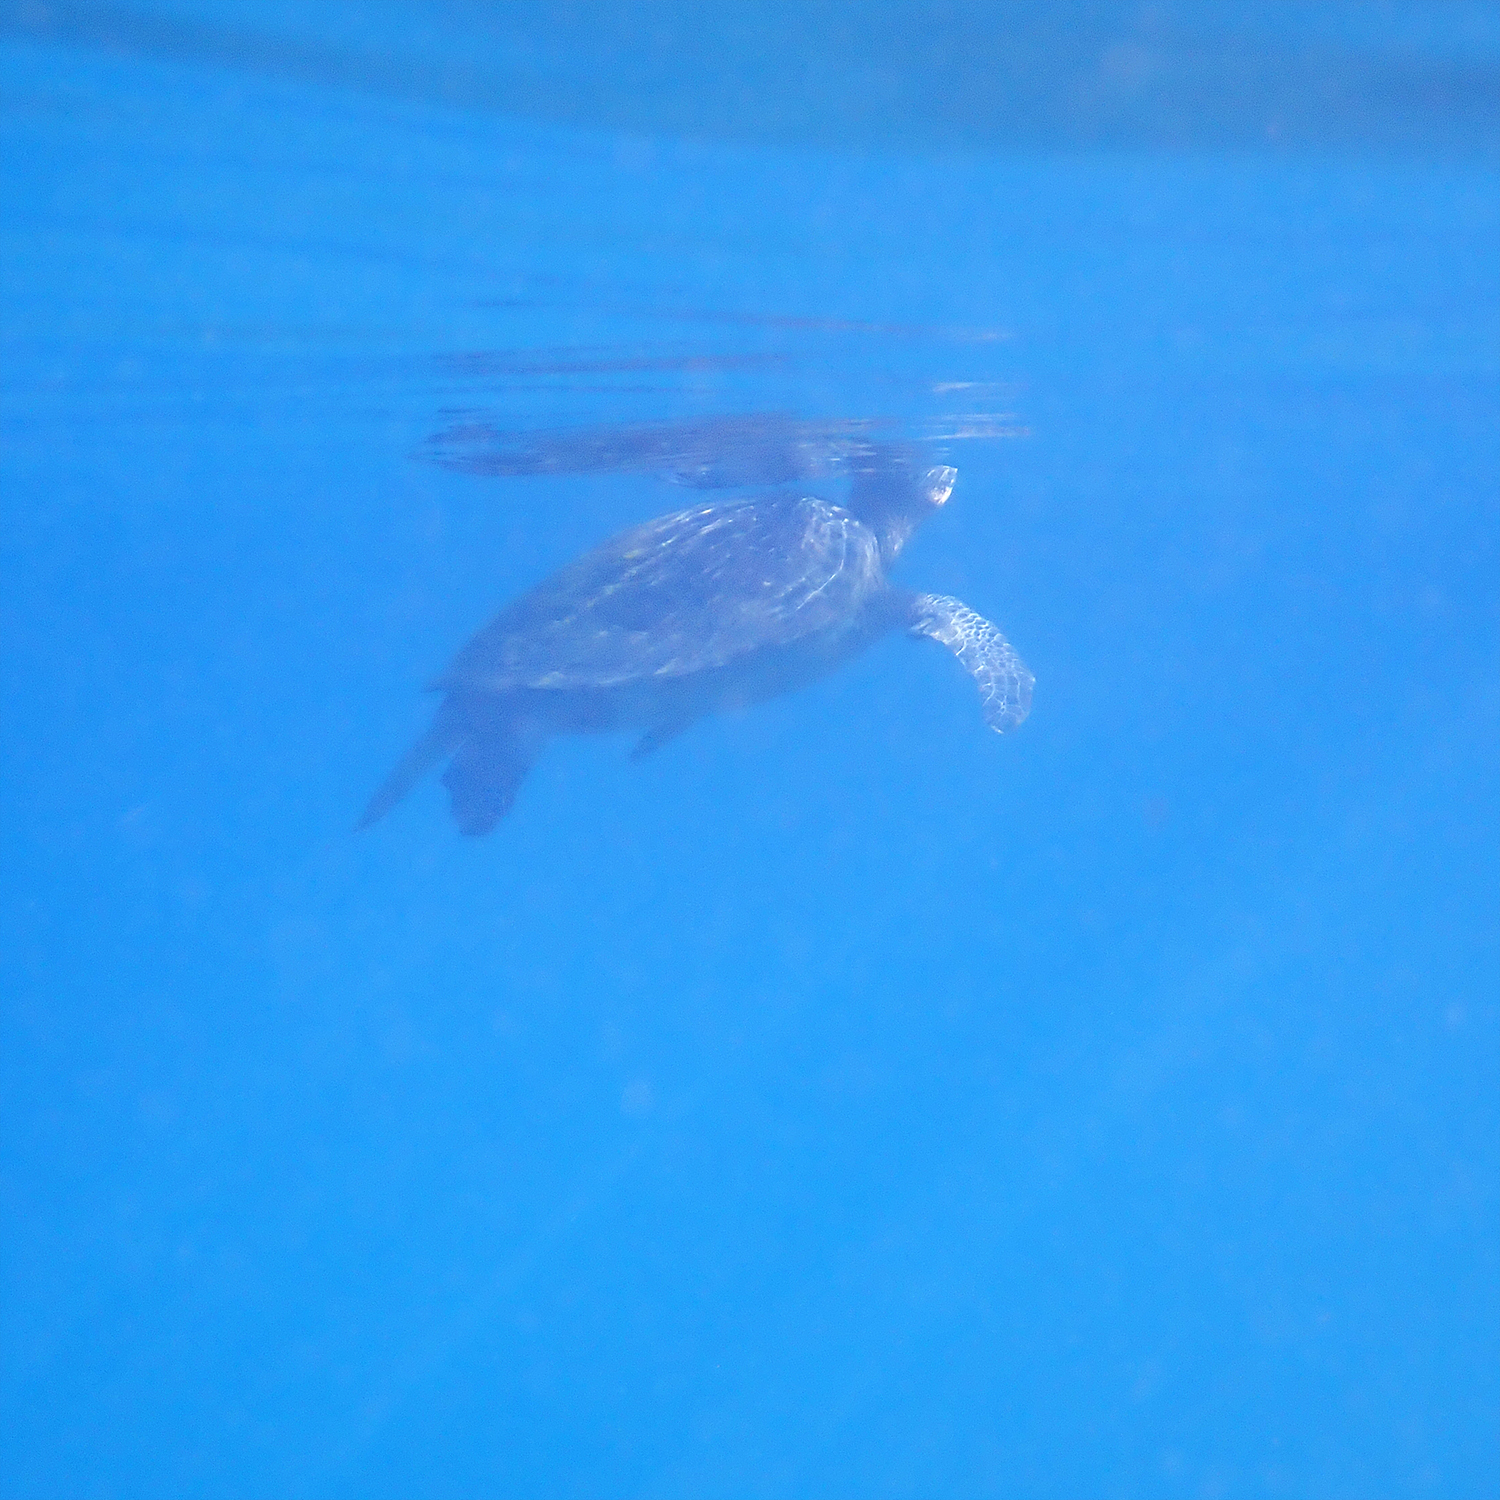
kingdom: Animalia
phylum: Chordata
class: Testudines
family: Cheloniidae
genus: Chelonia
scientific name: Chelonia mydas
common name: Green turtle
